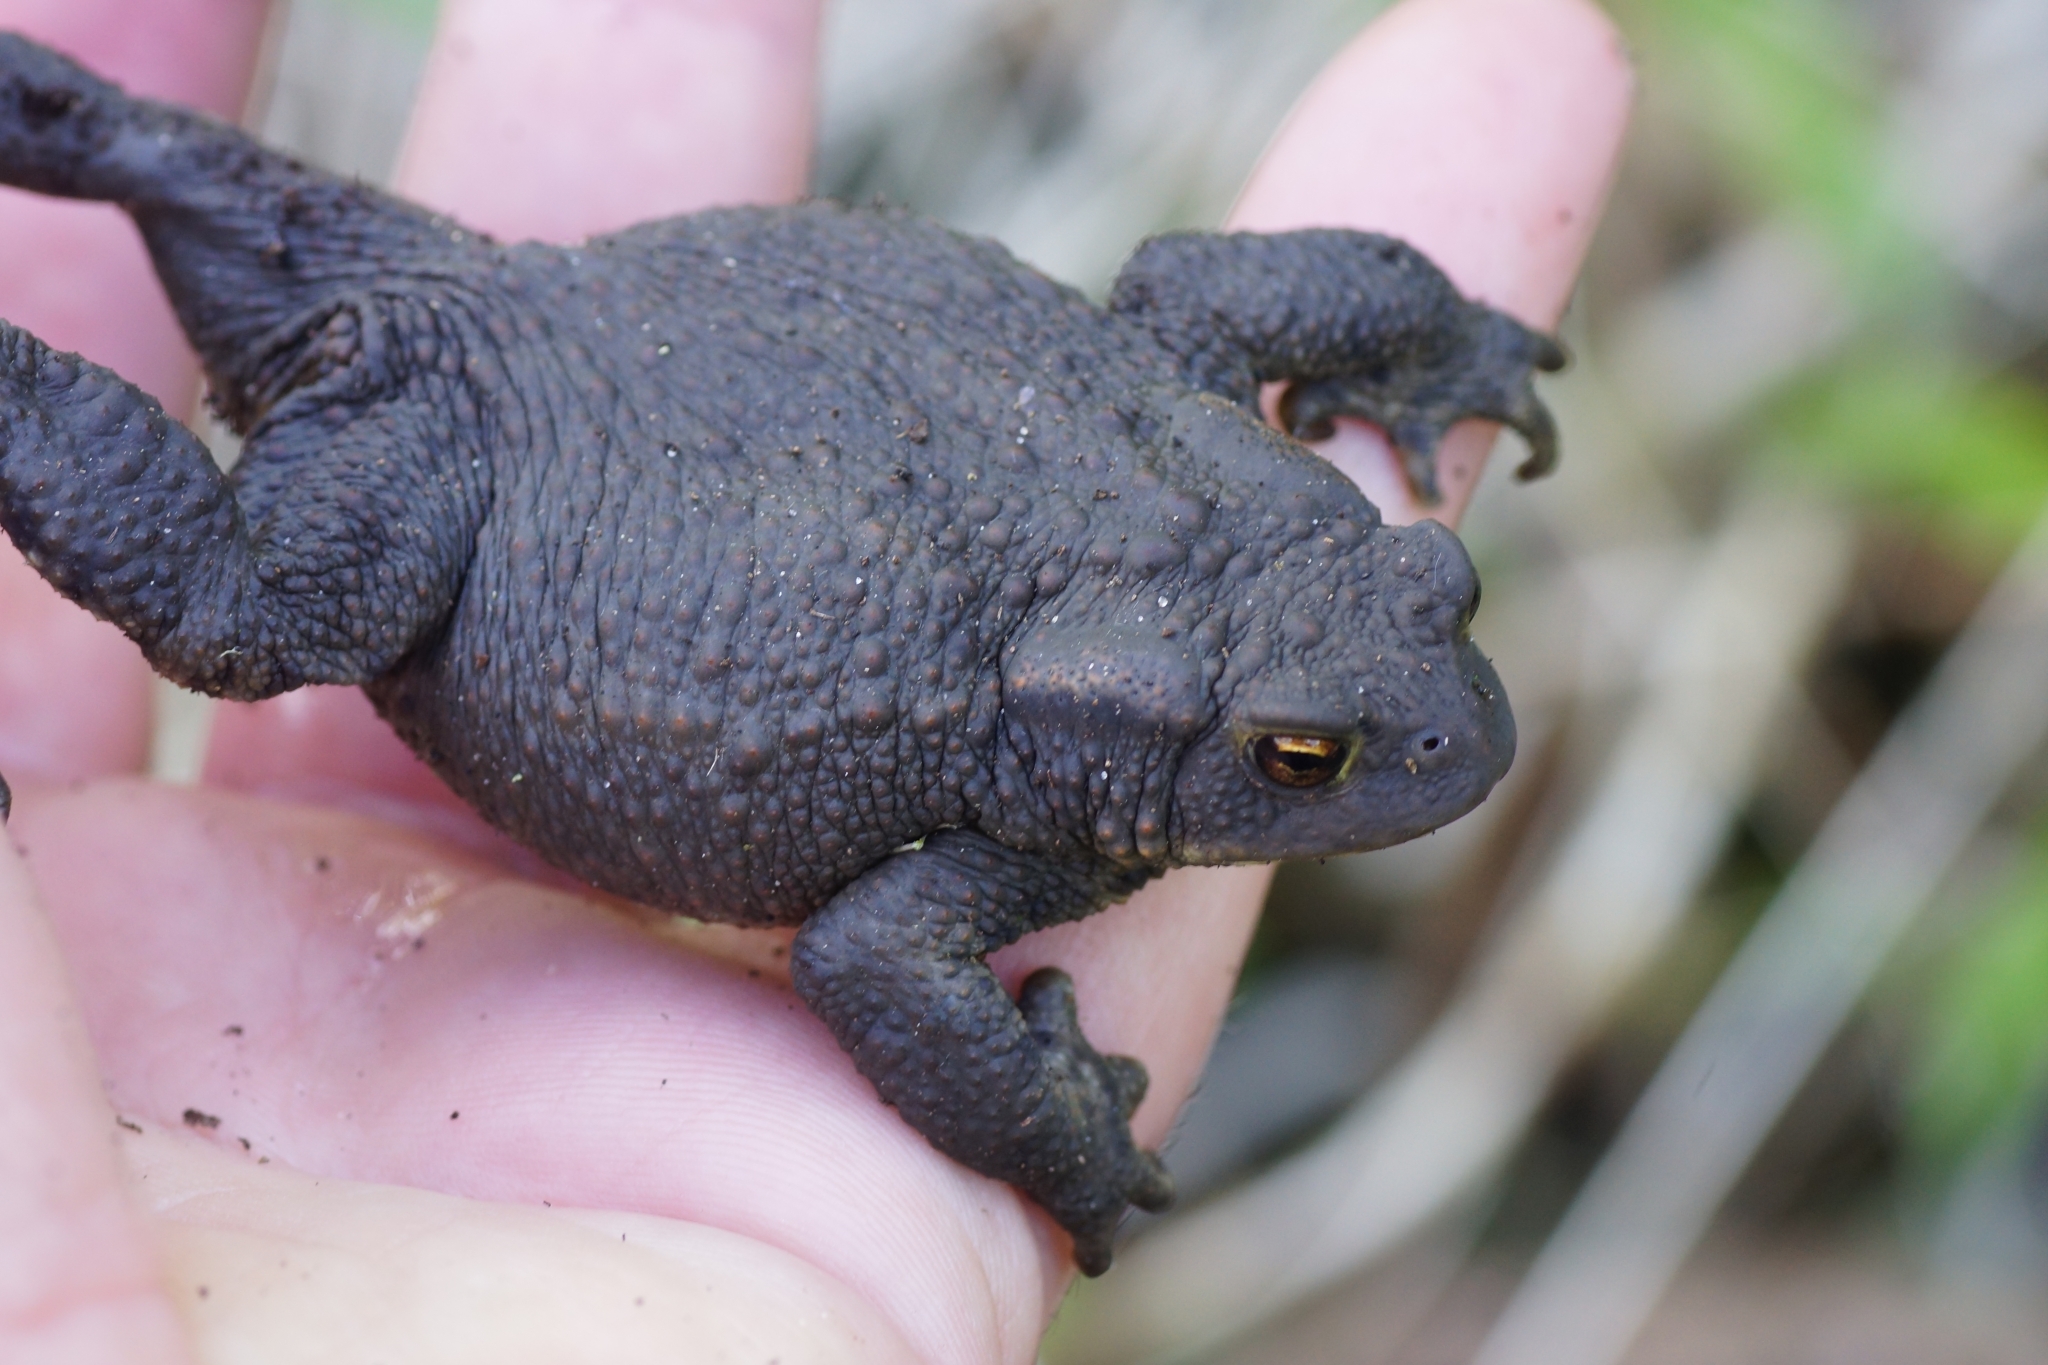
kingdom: Animalia
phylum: Chordata
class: Amphibia
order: Anura
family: Bufonidae
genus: Bufo
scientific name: Bufo bufo
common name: Common toad
